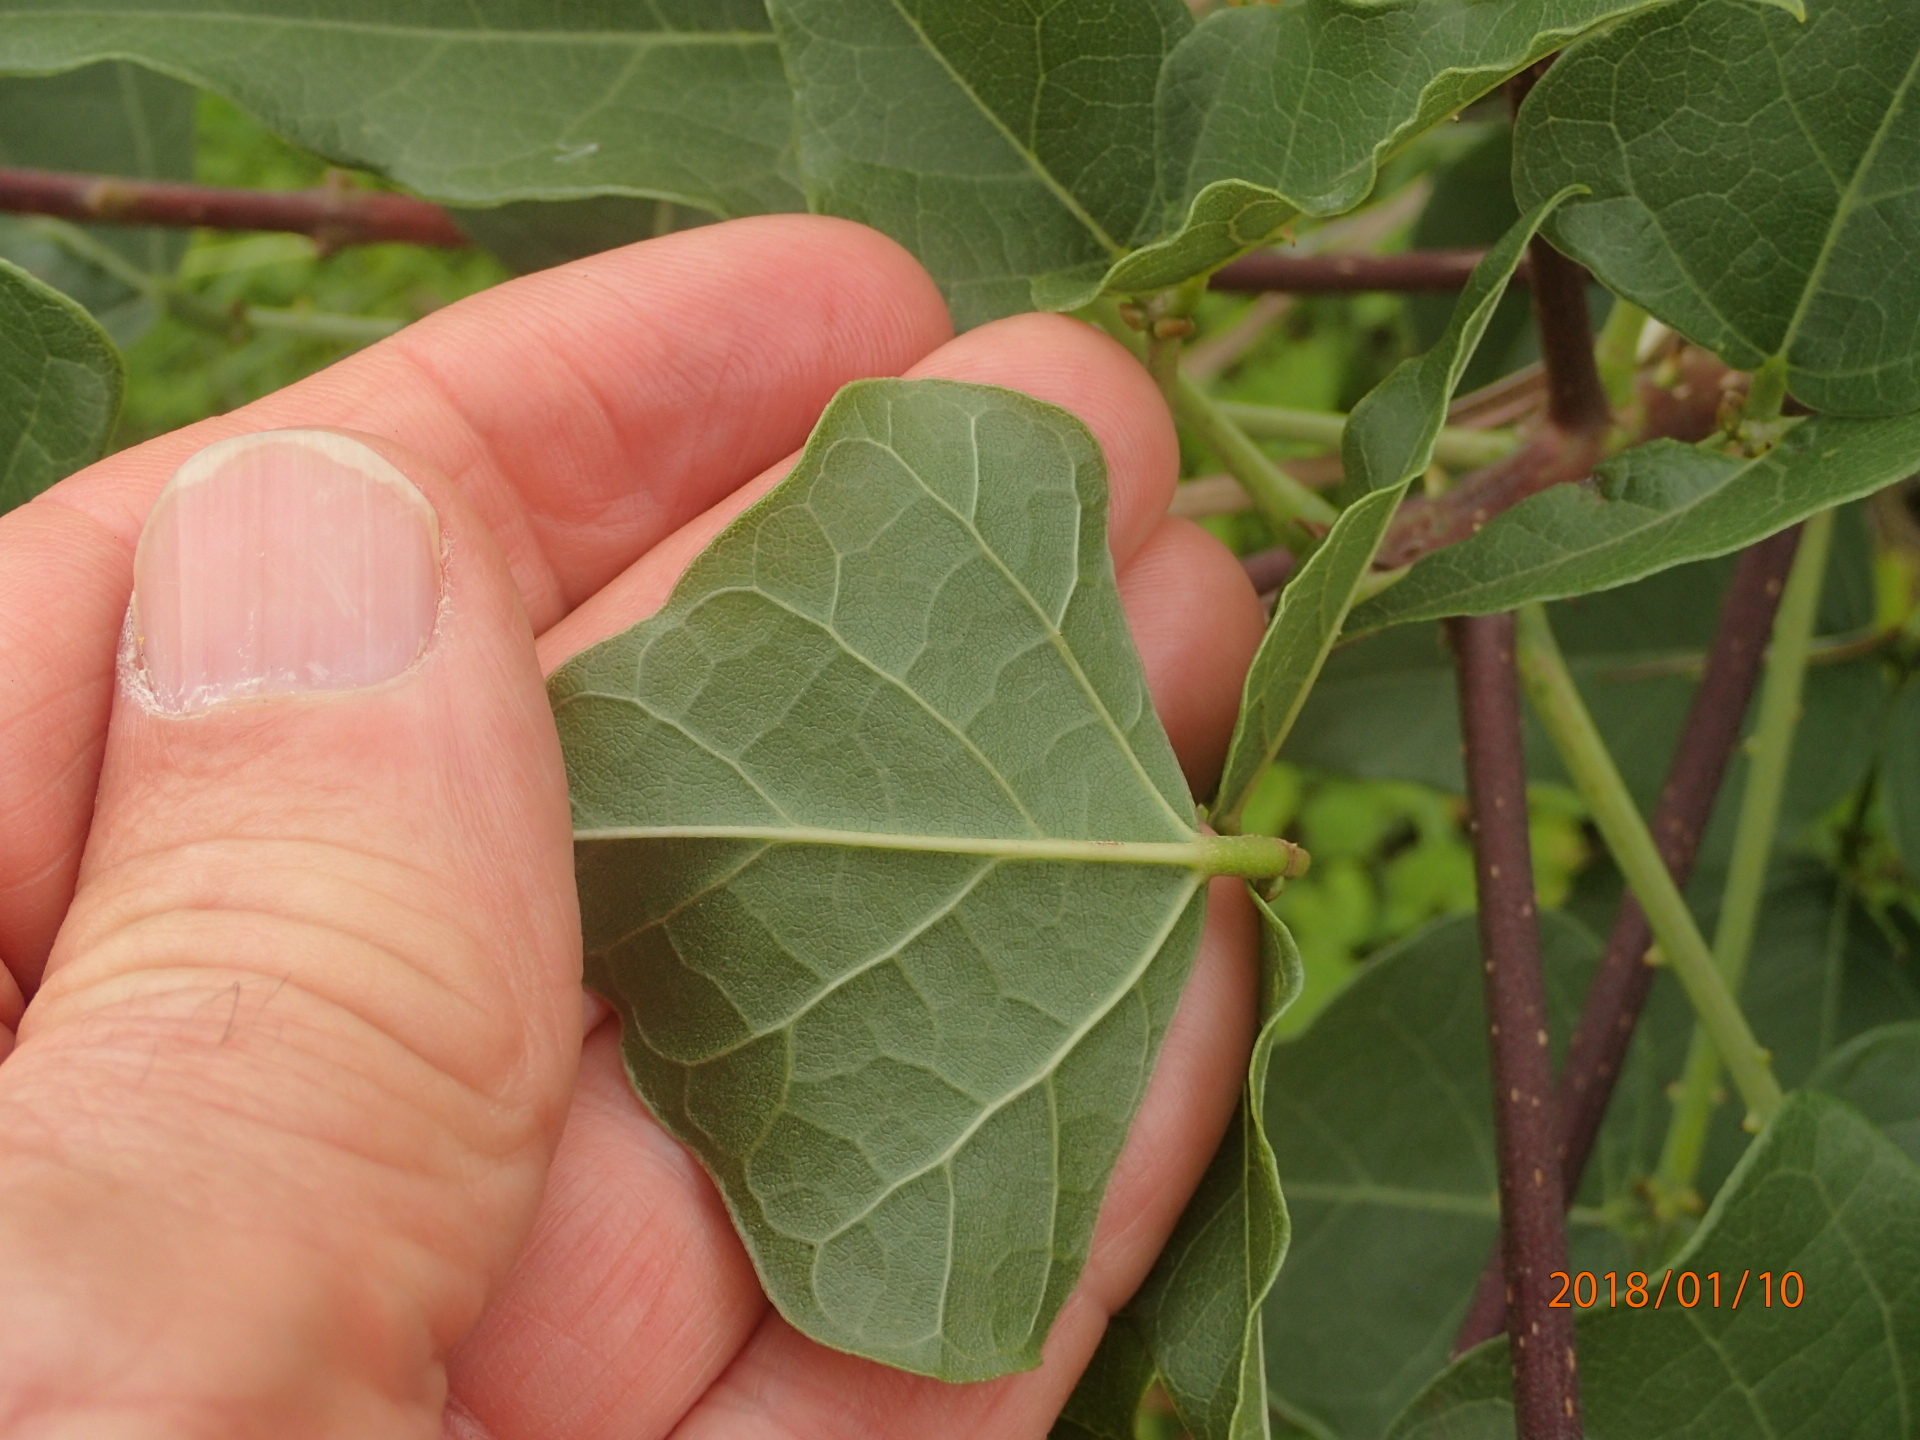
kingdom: Plantae
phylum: Tracheophyta
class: Magnoliopsida
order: Fabales
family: Fabaceae
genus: Erythrina
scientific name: Erythrina humeana
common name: Dwarf coral tree
